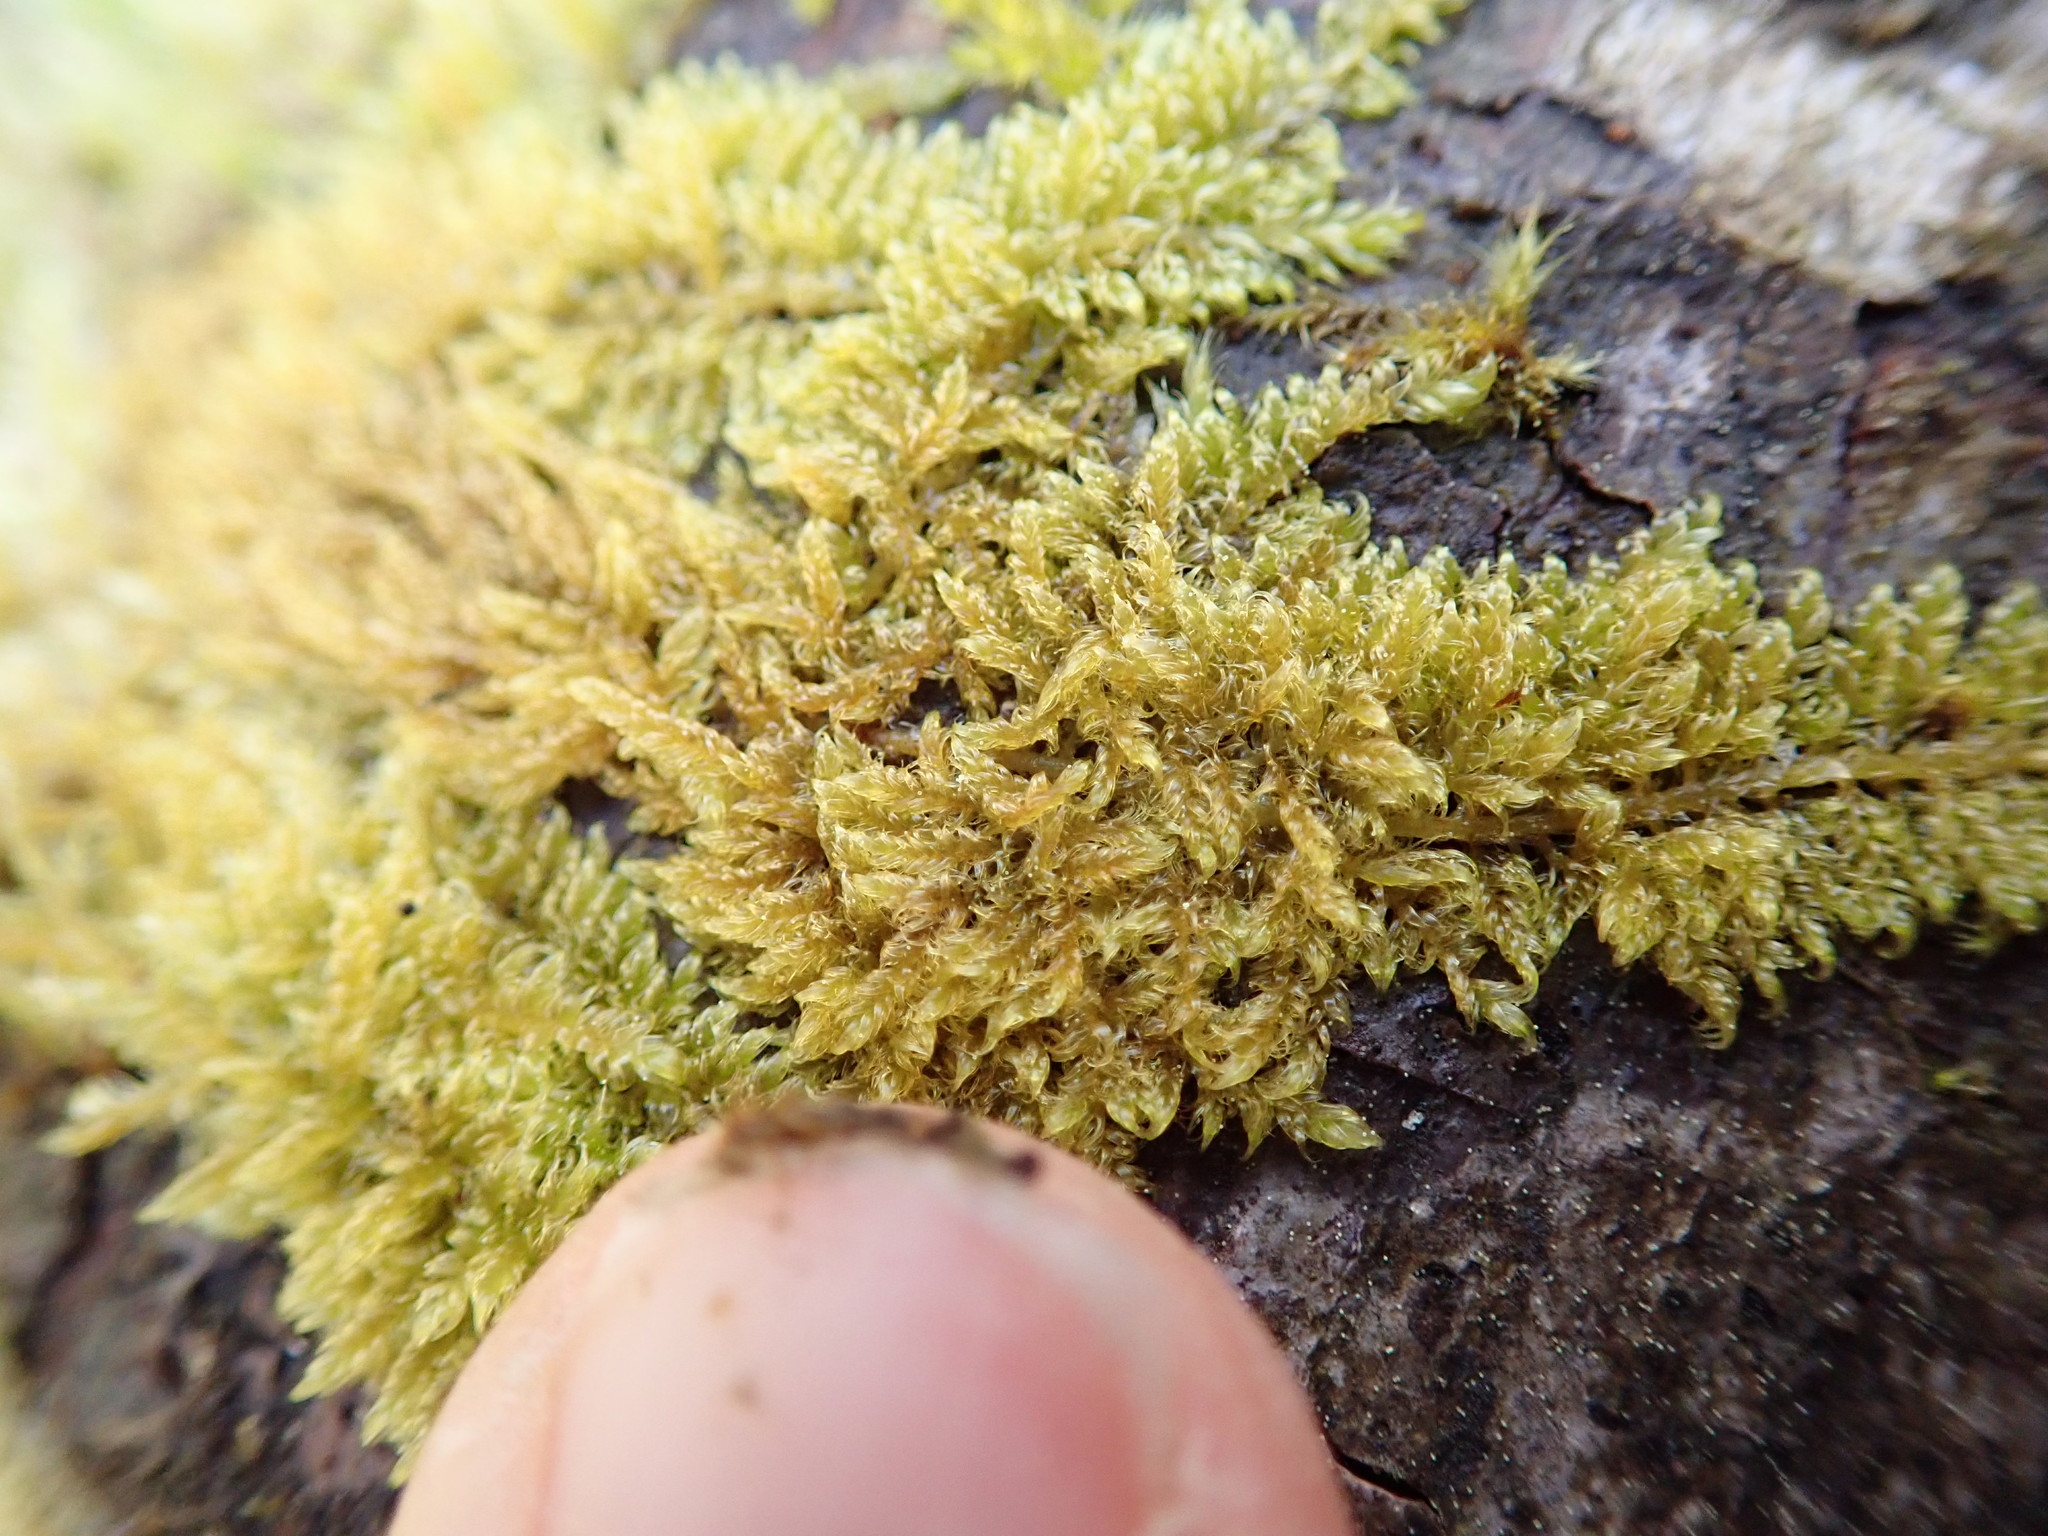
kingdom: Plantae
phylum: Bryophyta
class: Bryopsida
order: Hypnales
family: Stereodontaceae
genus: Stereodon
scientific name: Stereodon subimponens
